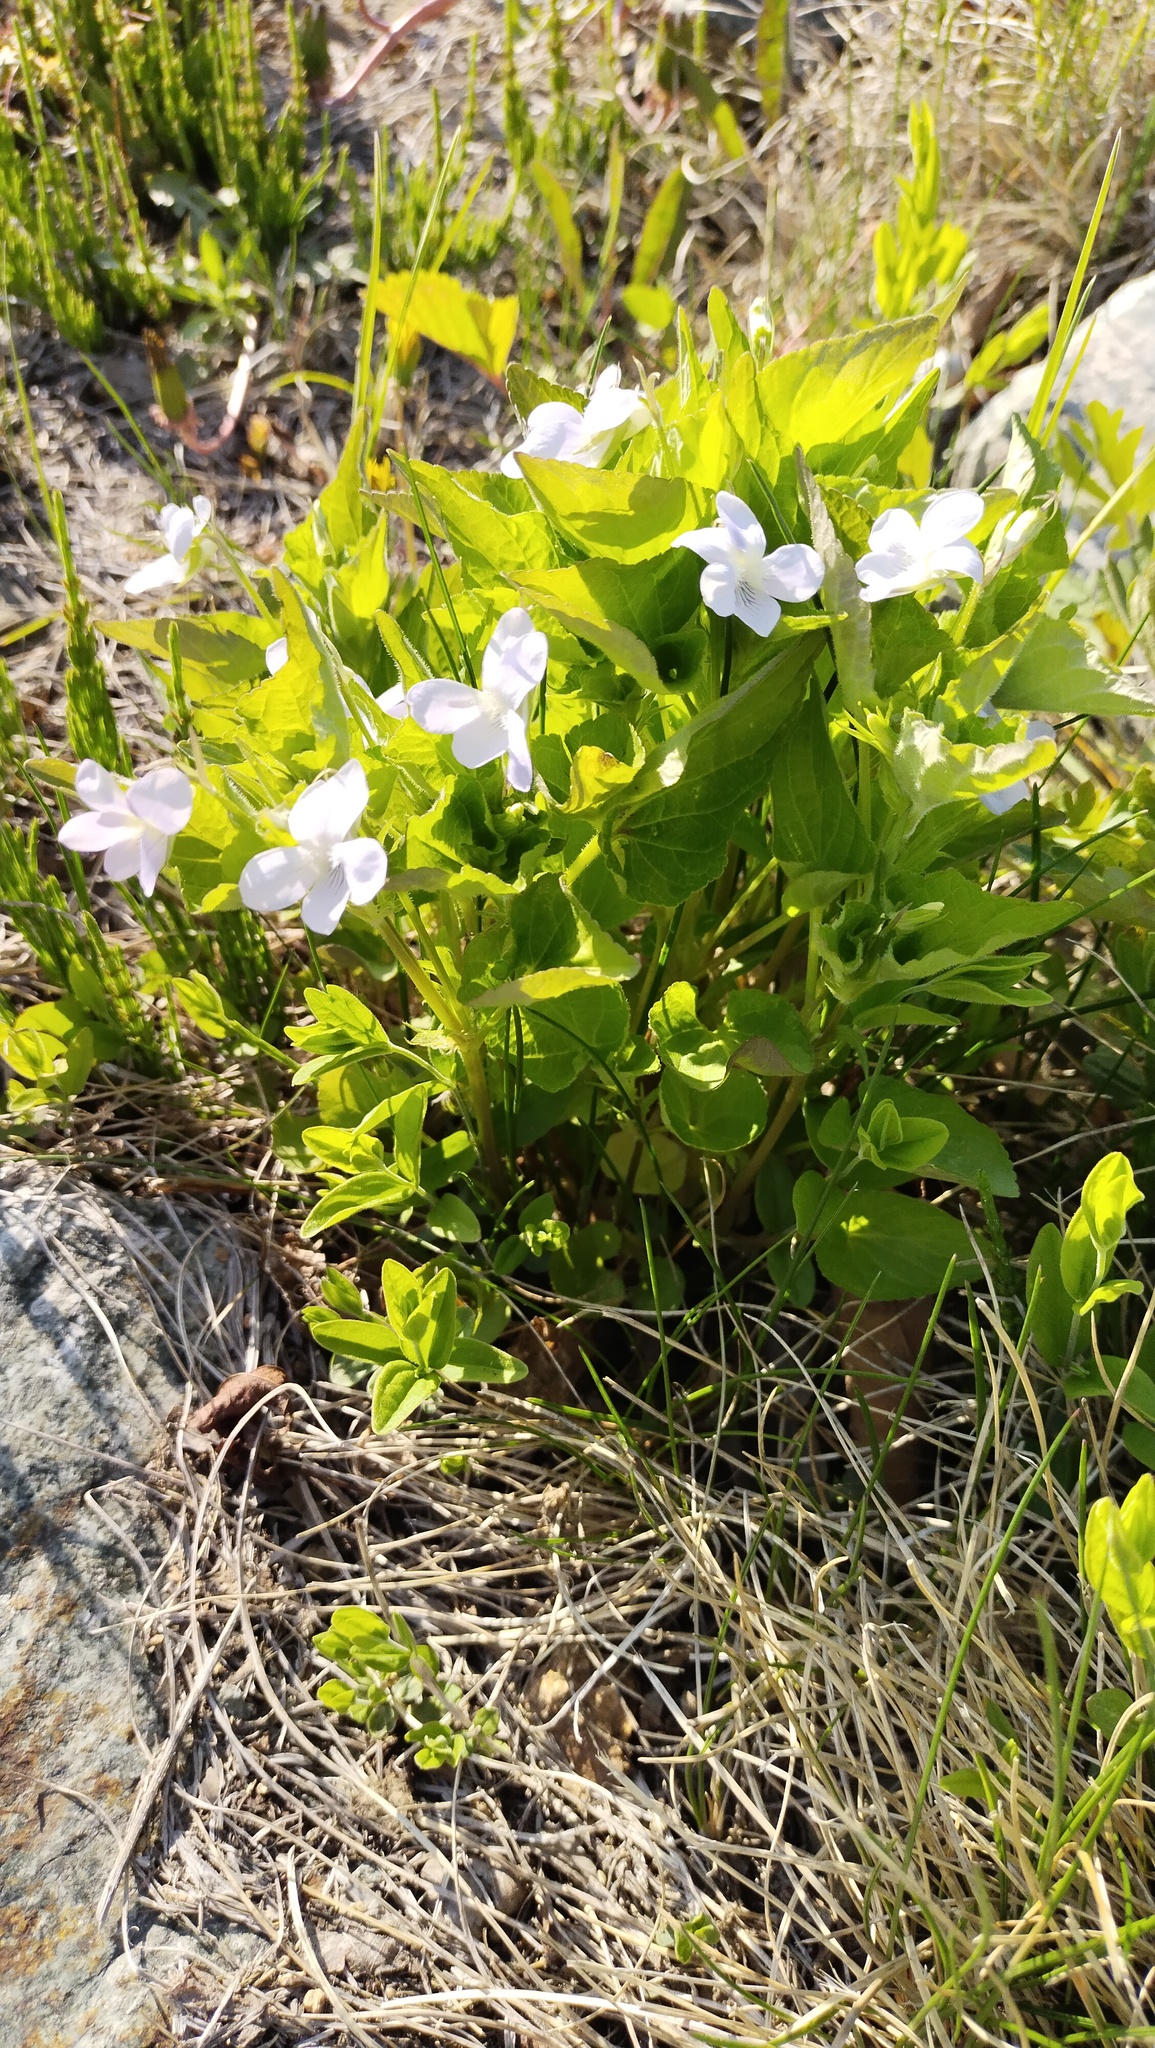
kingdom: Plantae
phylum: Tracheophyta
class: Magnoliopsida
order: Malpighiales
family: Violaceae
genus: Viola
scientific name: Viola acuminata
